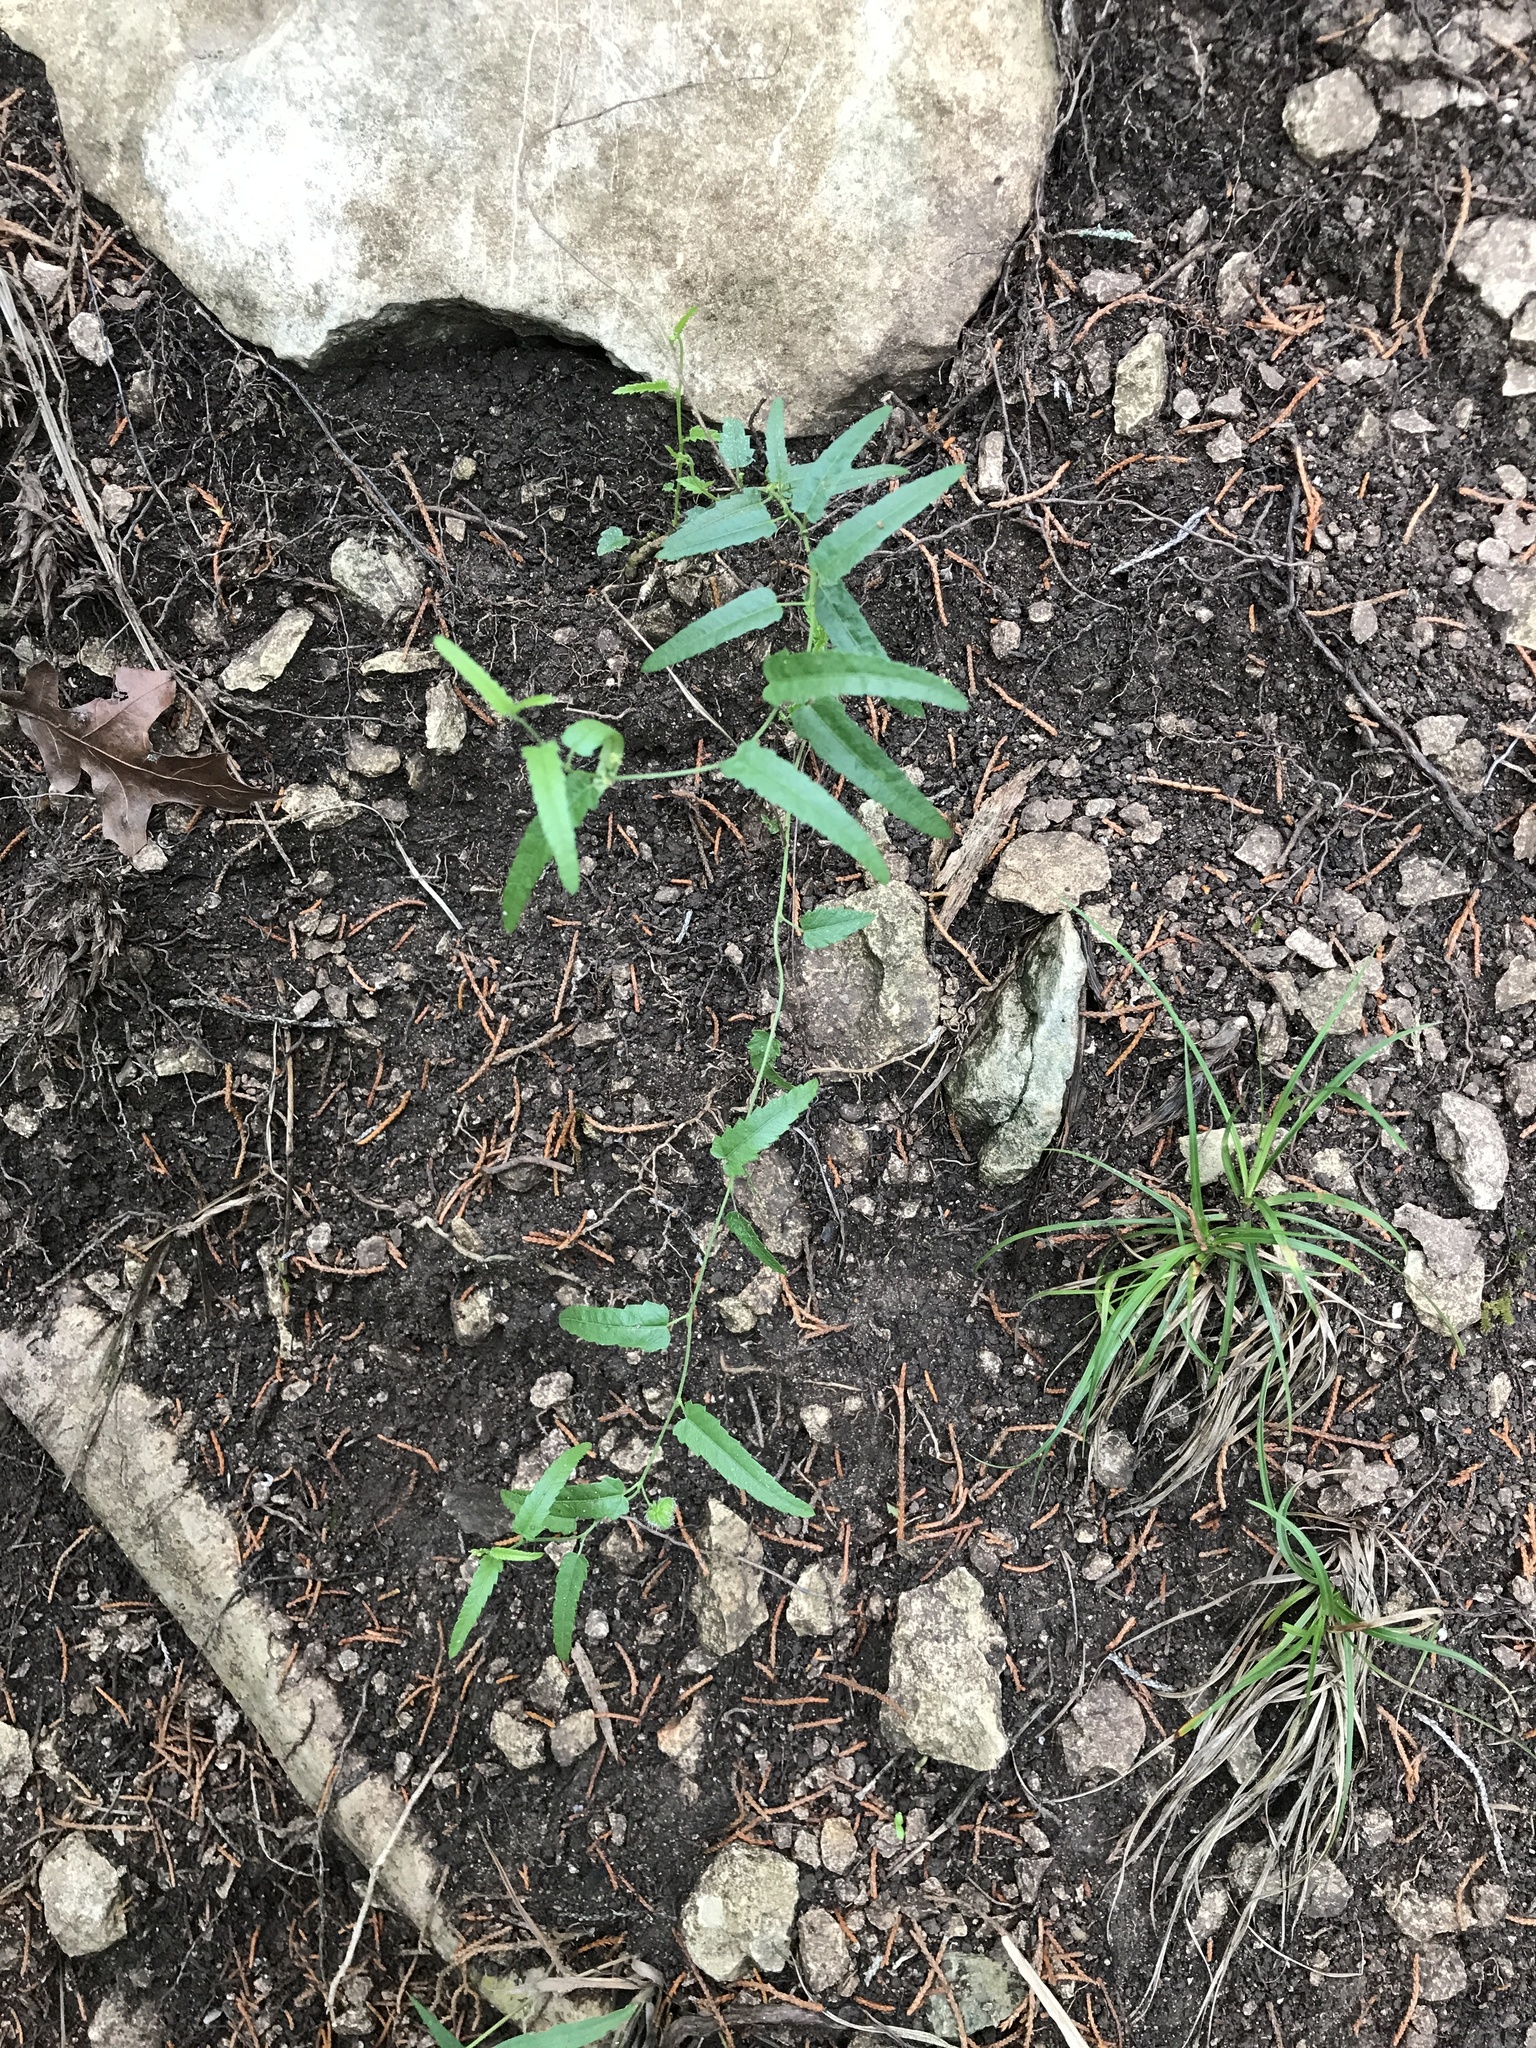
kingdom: Plantae
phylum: Tracheophyta
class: Magnoliopsida
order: Malpighiales
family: Euphorbiaceae
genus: Tragia
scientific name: Tragia ramosa
